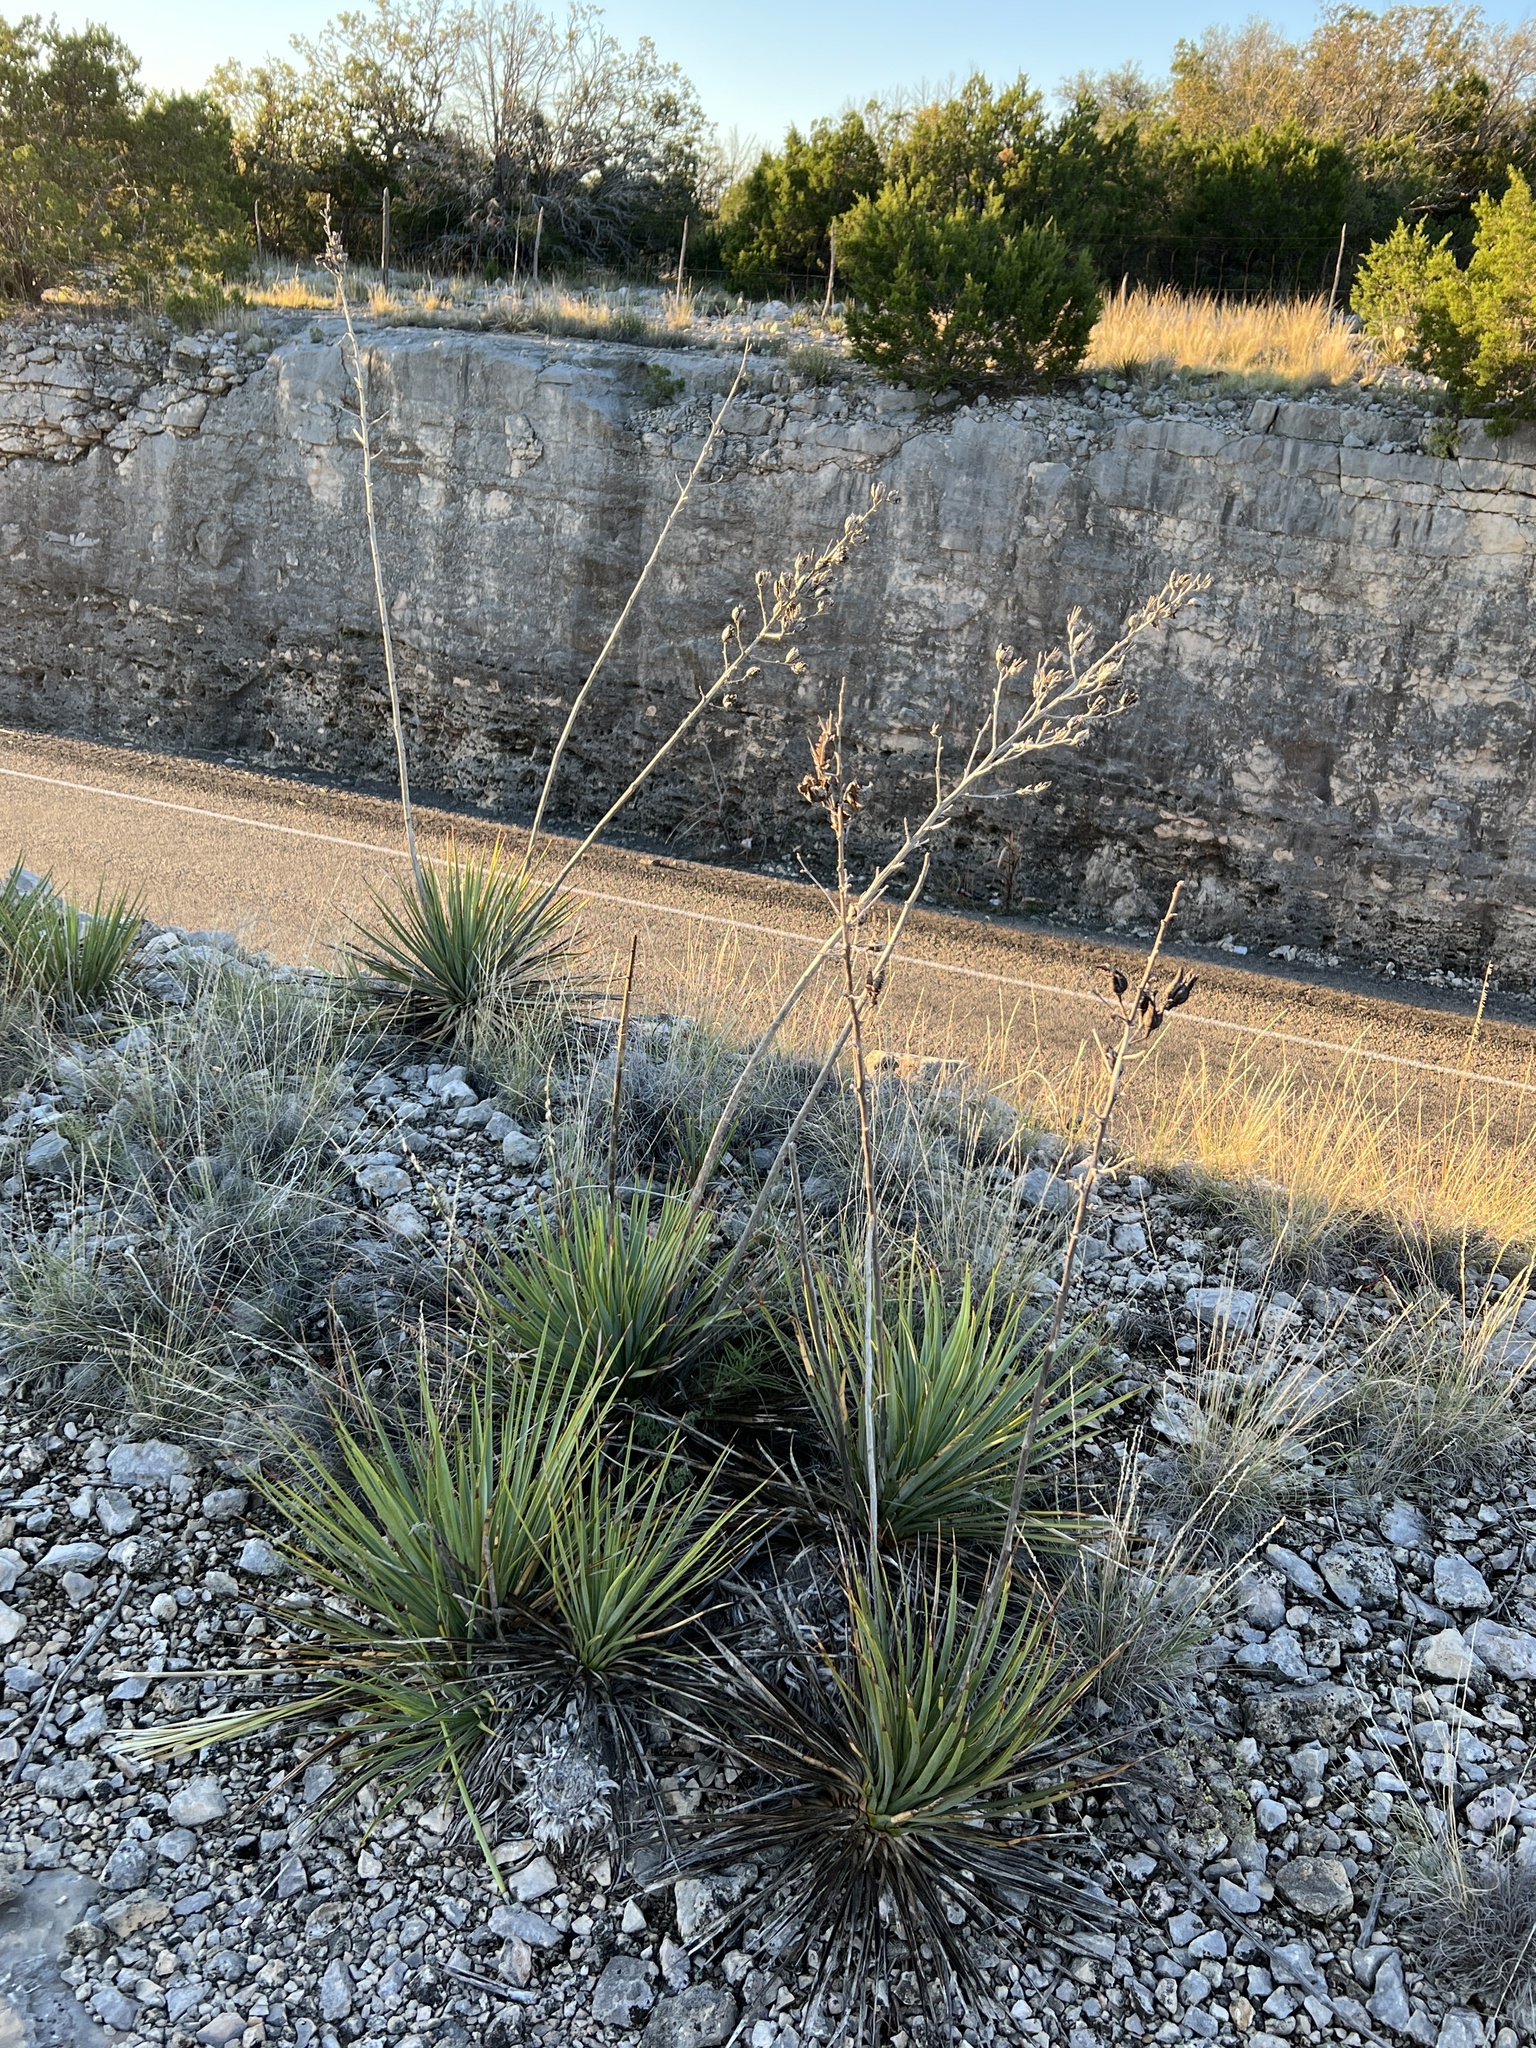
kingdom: Plantae
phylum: Tracheophyta
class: Liliopsida
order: Asparagales
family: Asparagaceae
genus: Yucca
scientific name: Yucca reverchonii
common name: San angelo yucca
